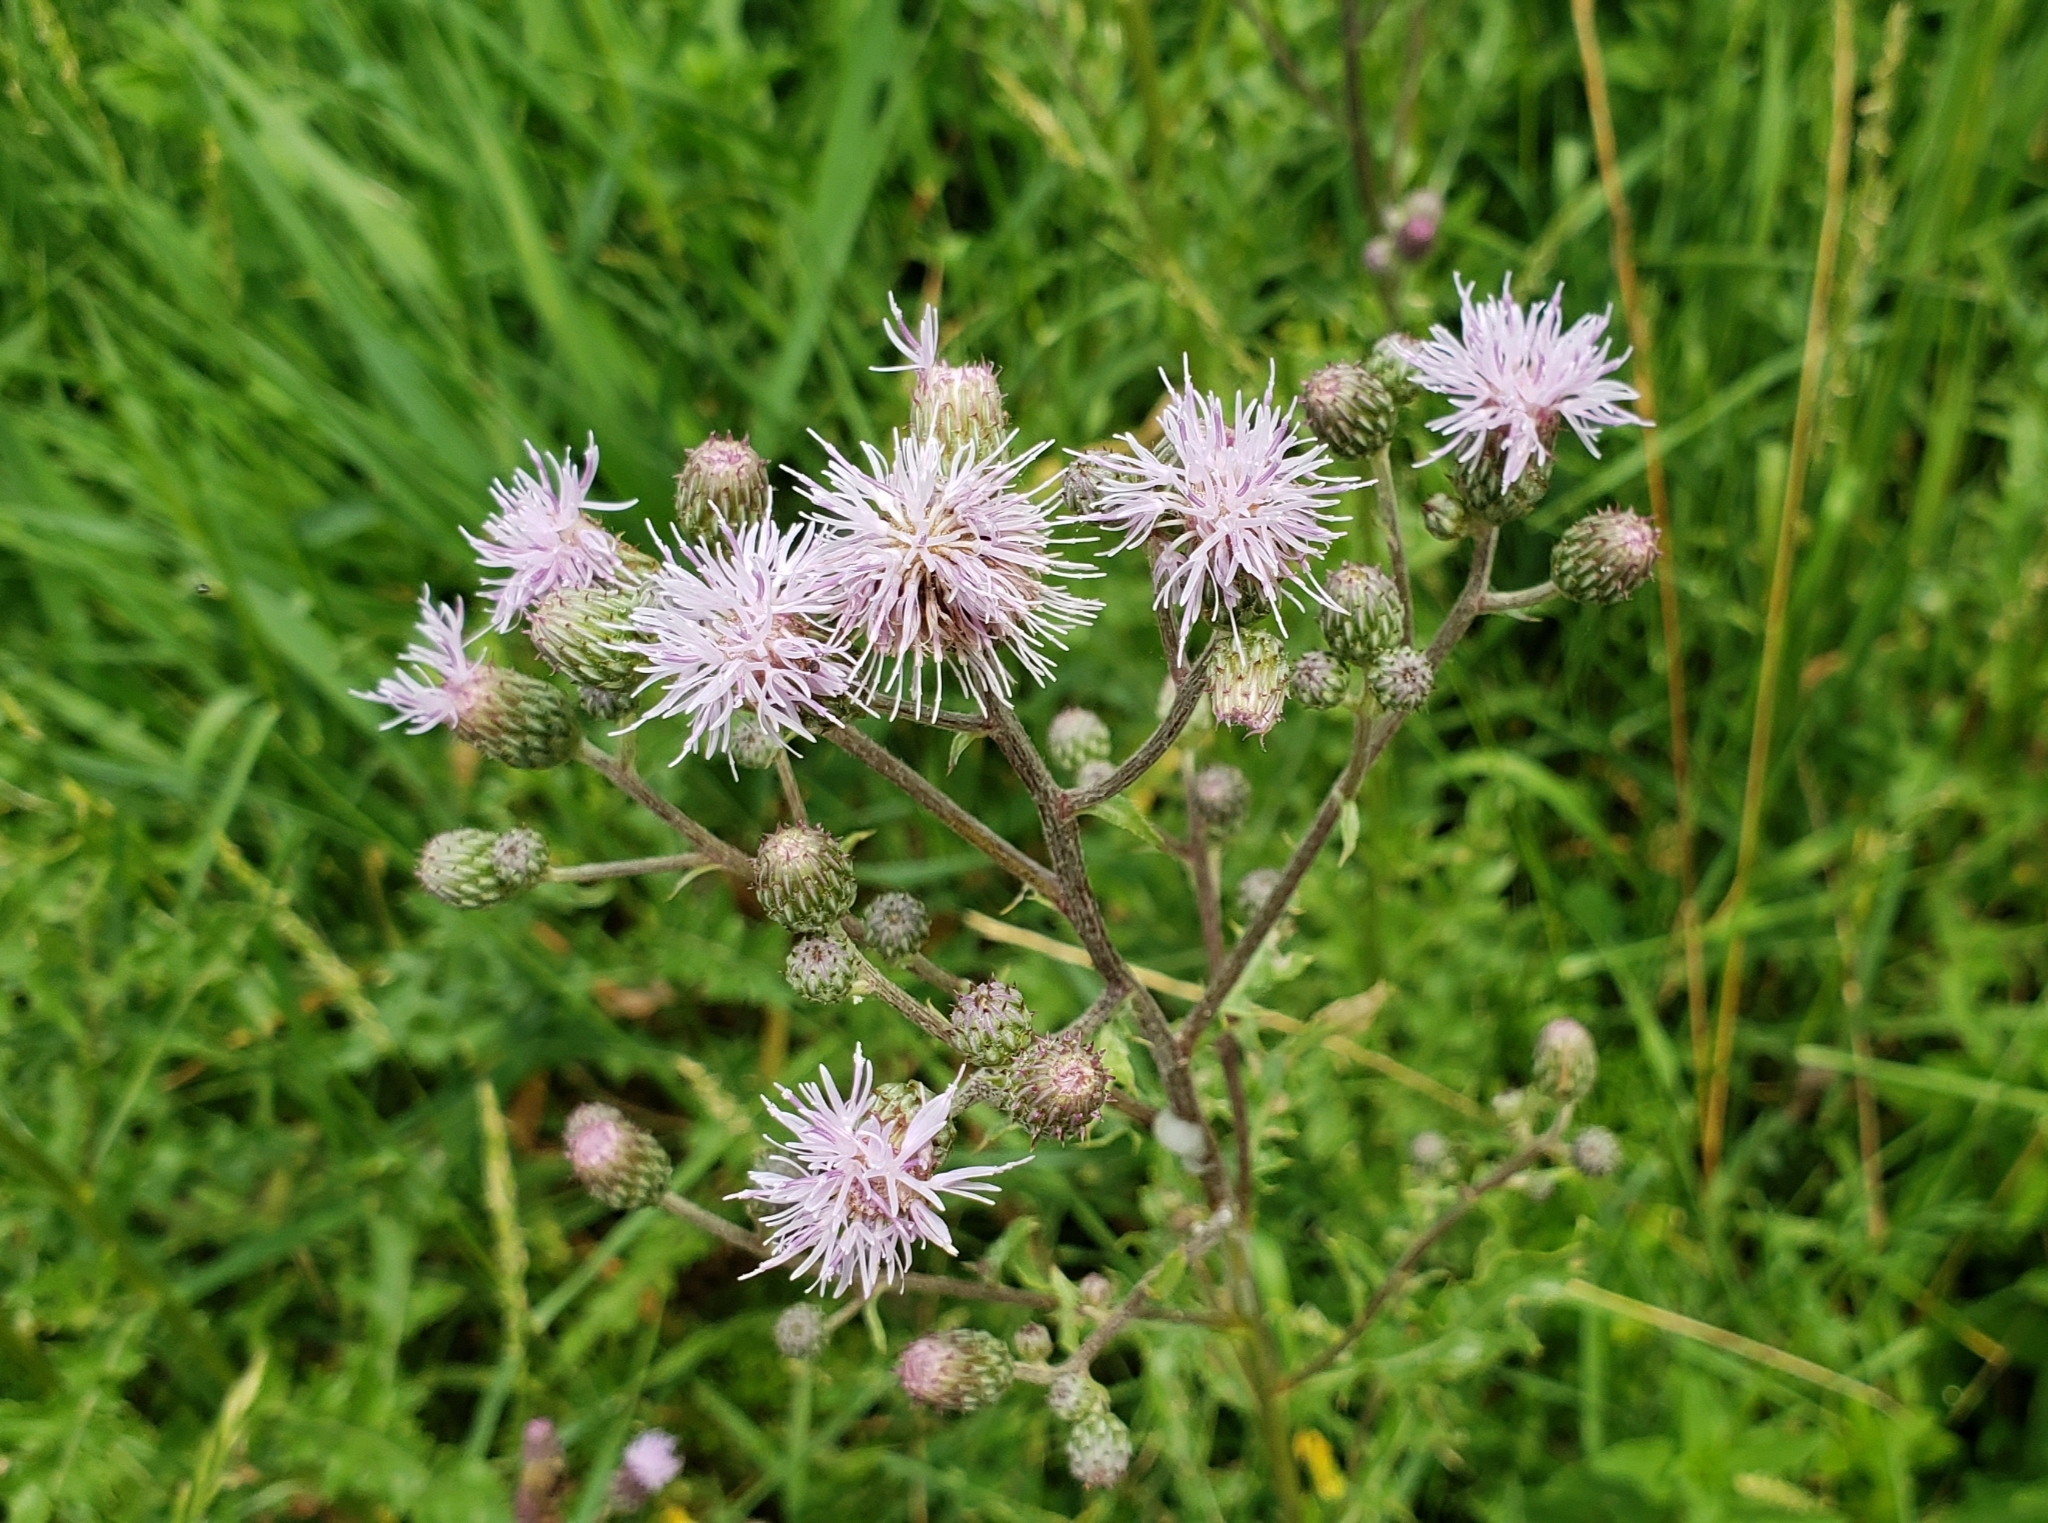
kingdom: Plantae
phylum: Tracheophyta
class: Magnoliopsida
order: Asterales
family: Asteraceae
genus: Cirsium
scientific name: Cirsium arvense
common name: Creeping thistle
